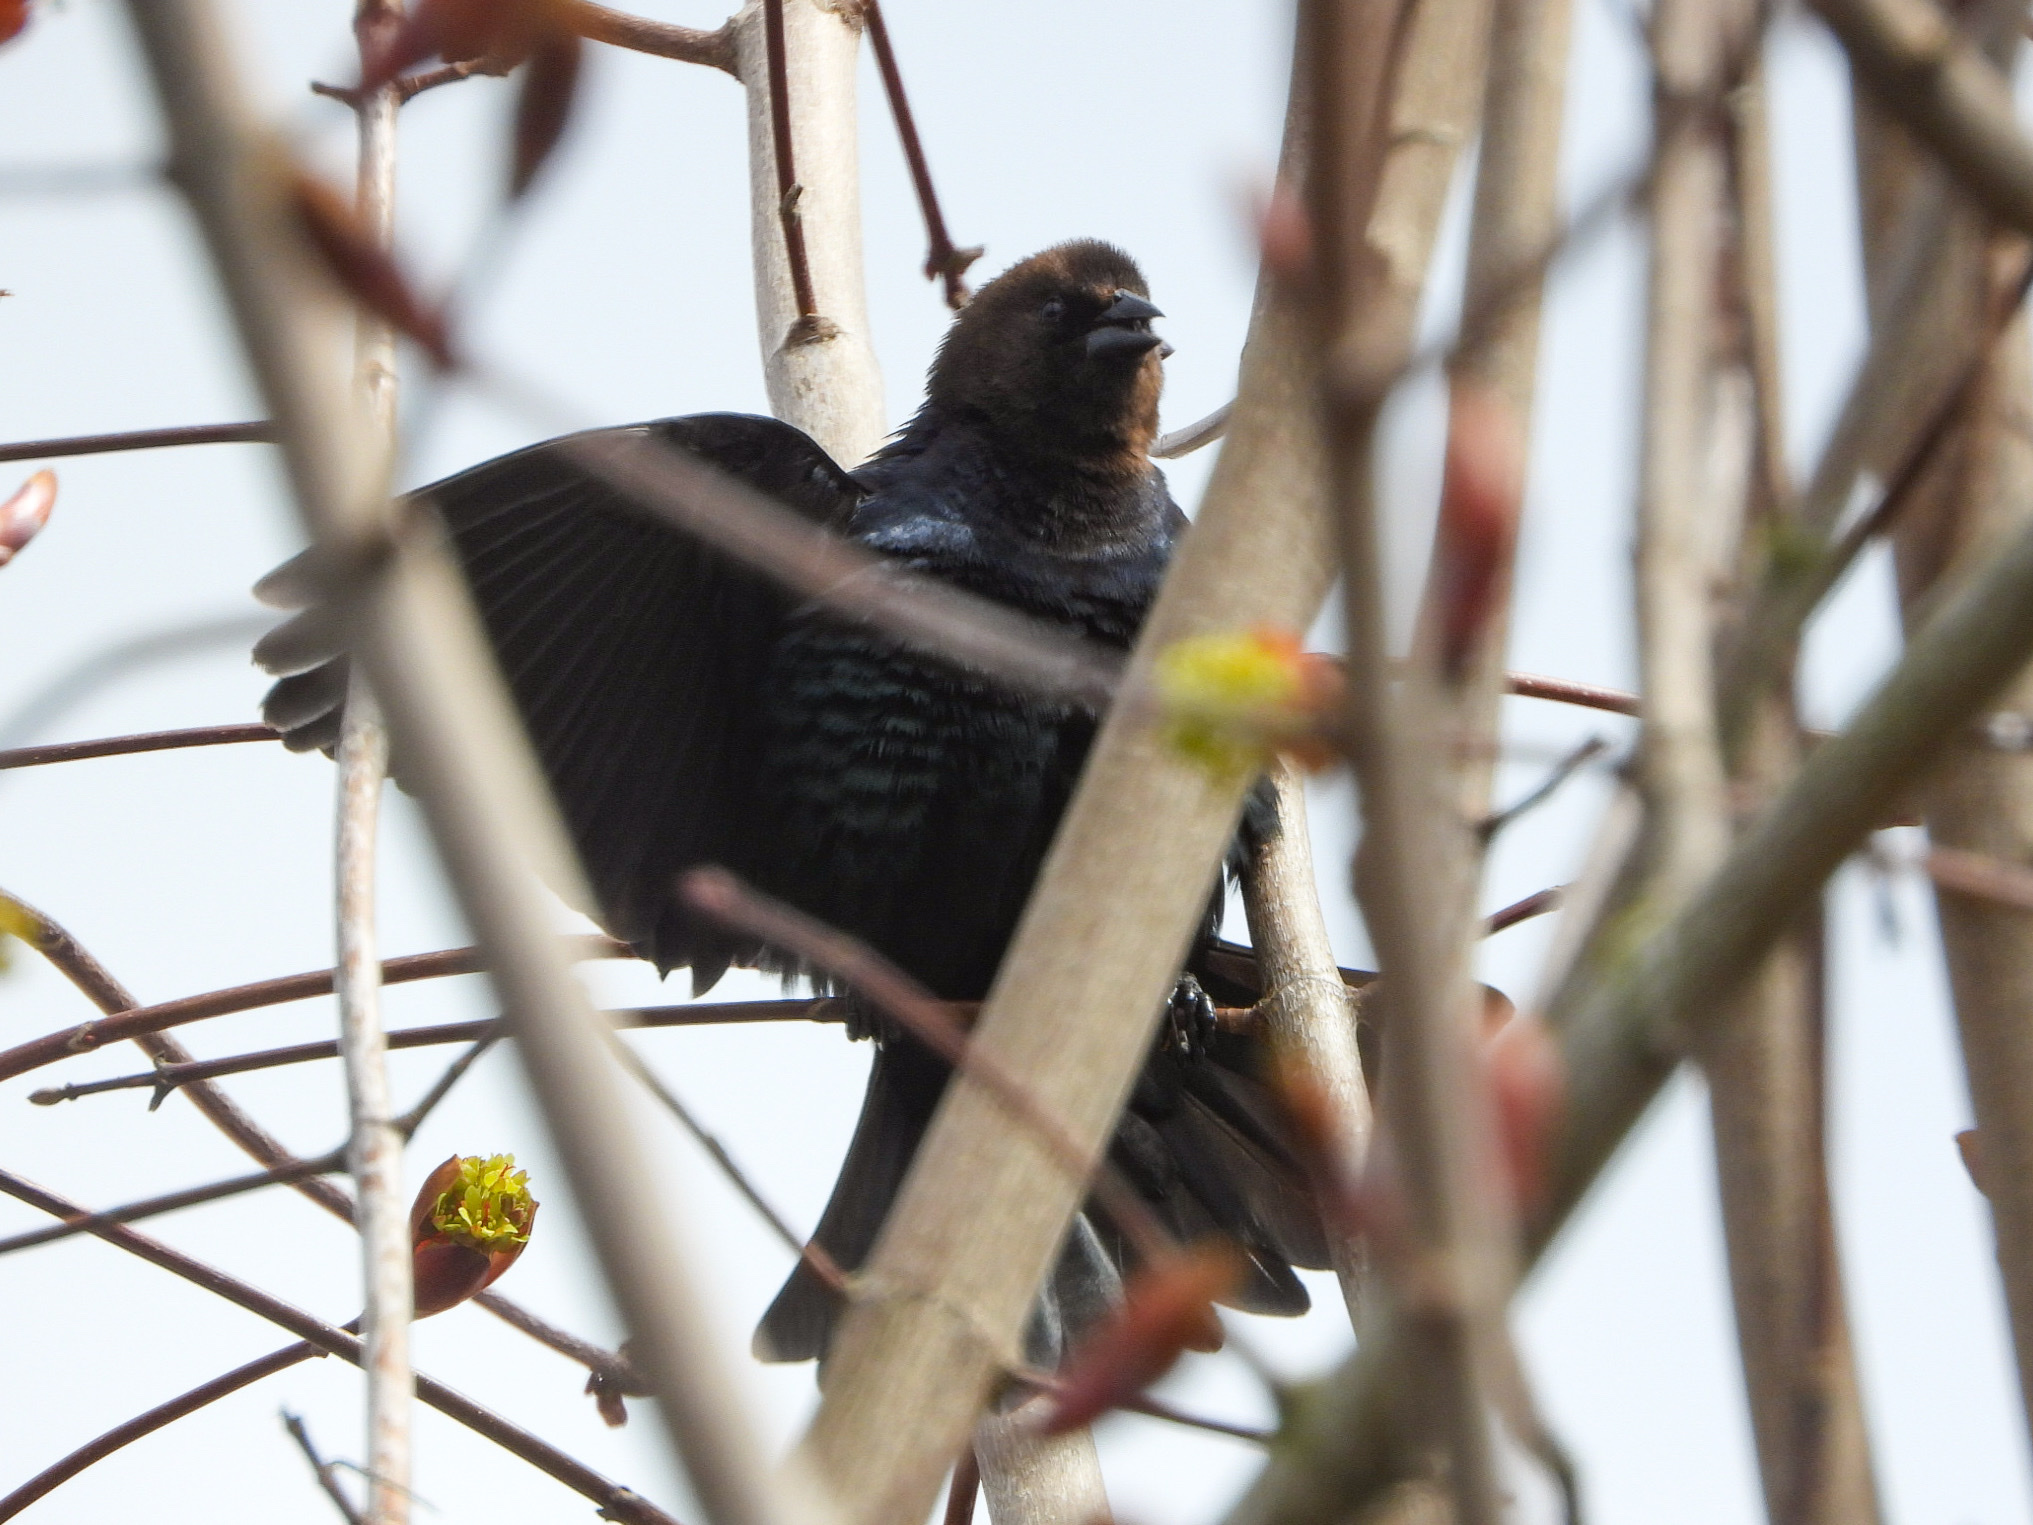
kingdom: Animalia
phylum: Chordata
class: Aves
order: Passeriformes
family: Icteridae
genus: Molothrus
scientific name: Molothrus ater
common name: Brown-headed cowbird
